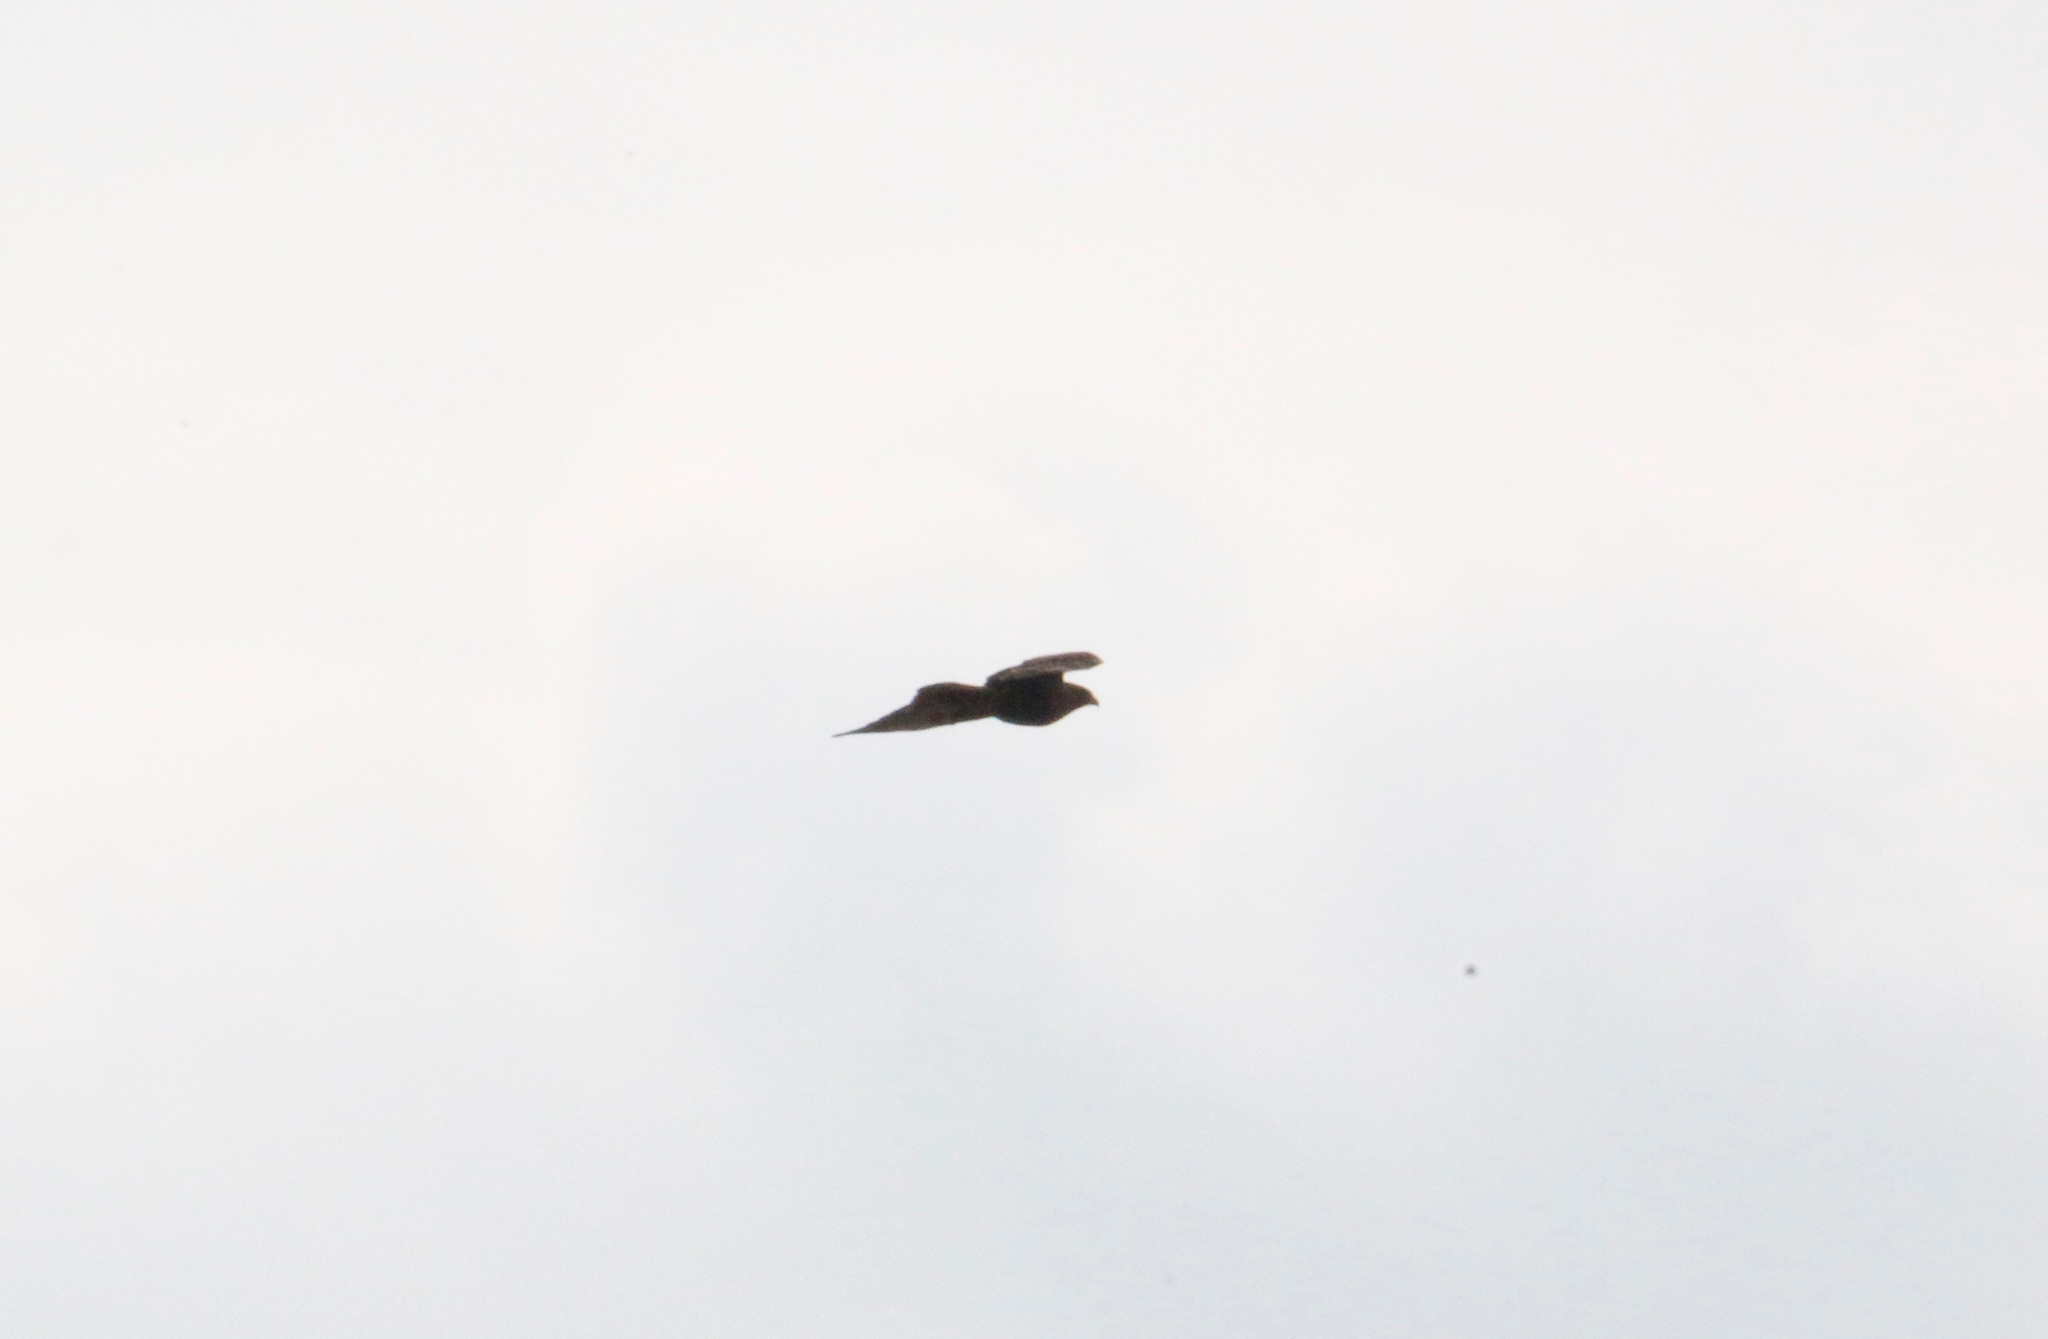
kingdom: Animalia
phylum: Chordata
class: Aves
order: Accipitriformes
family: Accipitridae
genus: Buteo
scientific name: Buteo jamaicensis
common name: Red-tailed hawk
